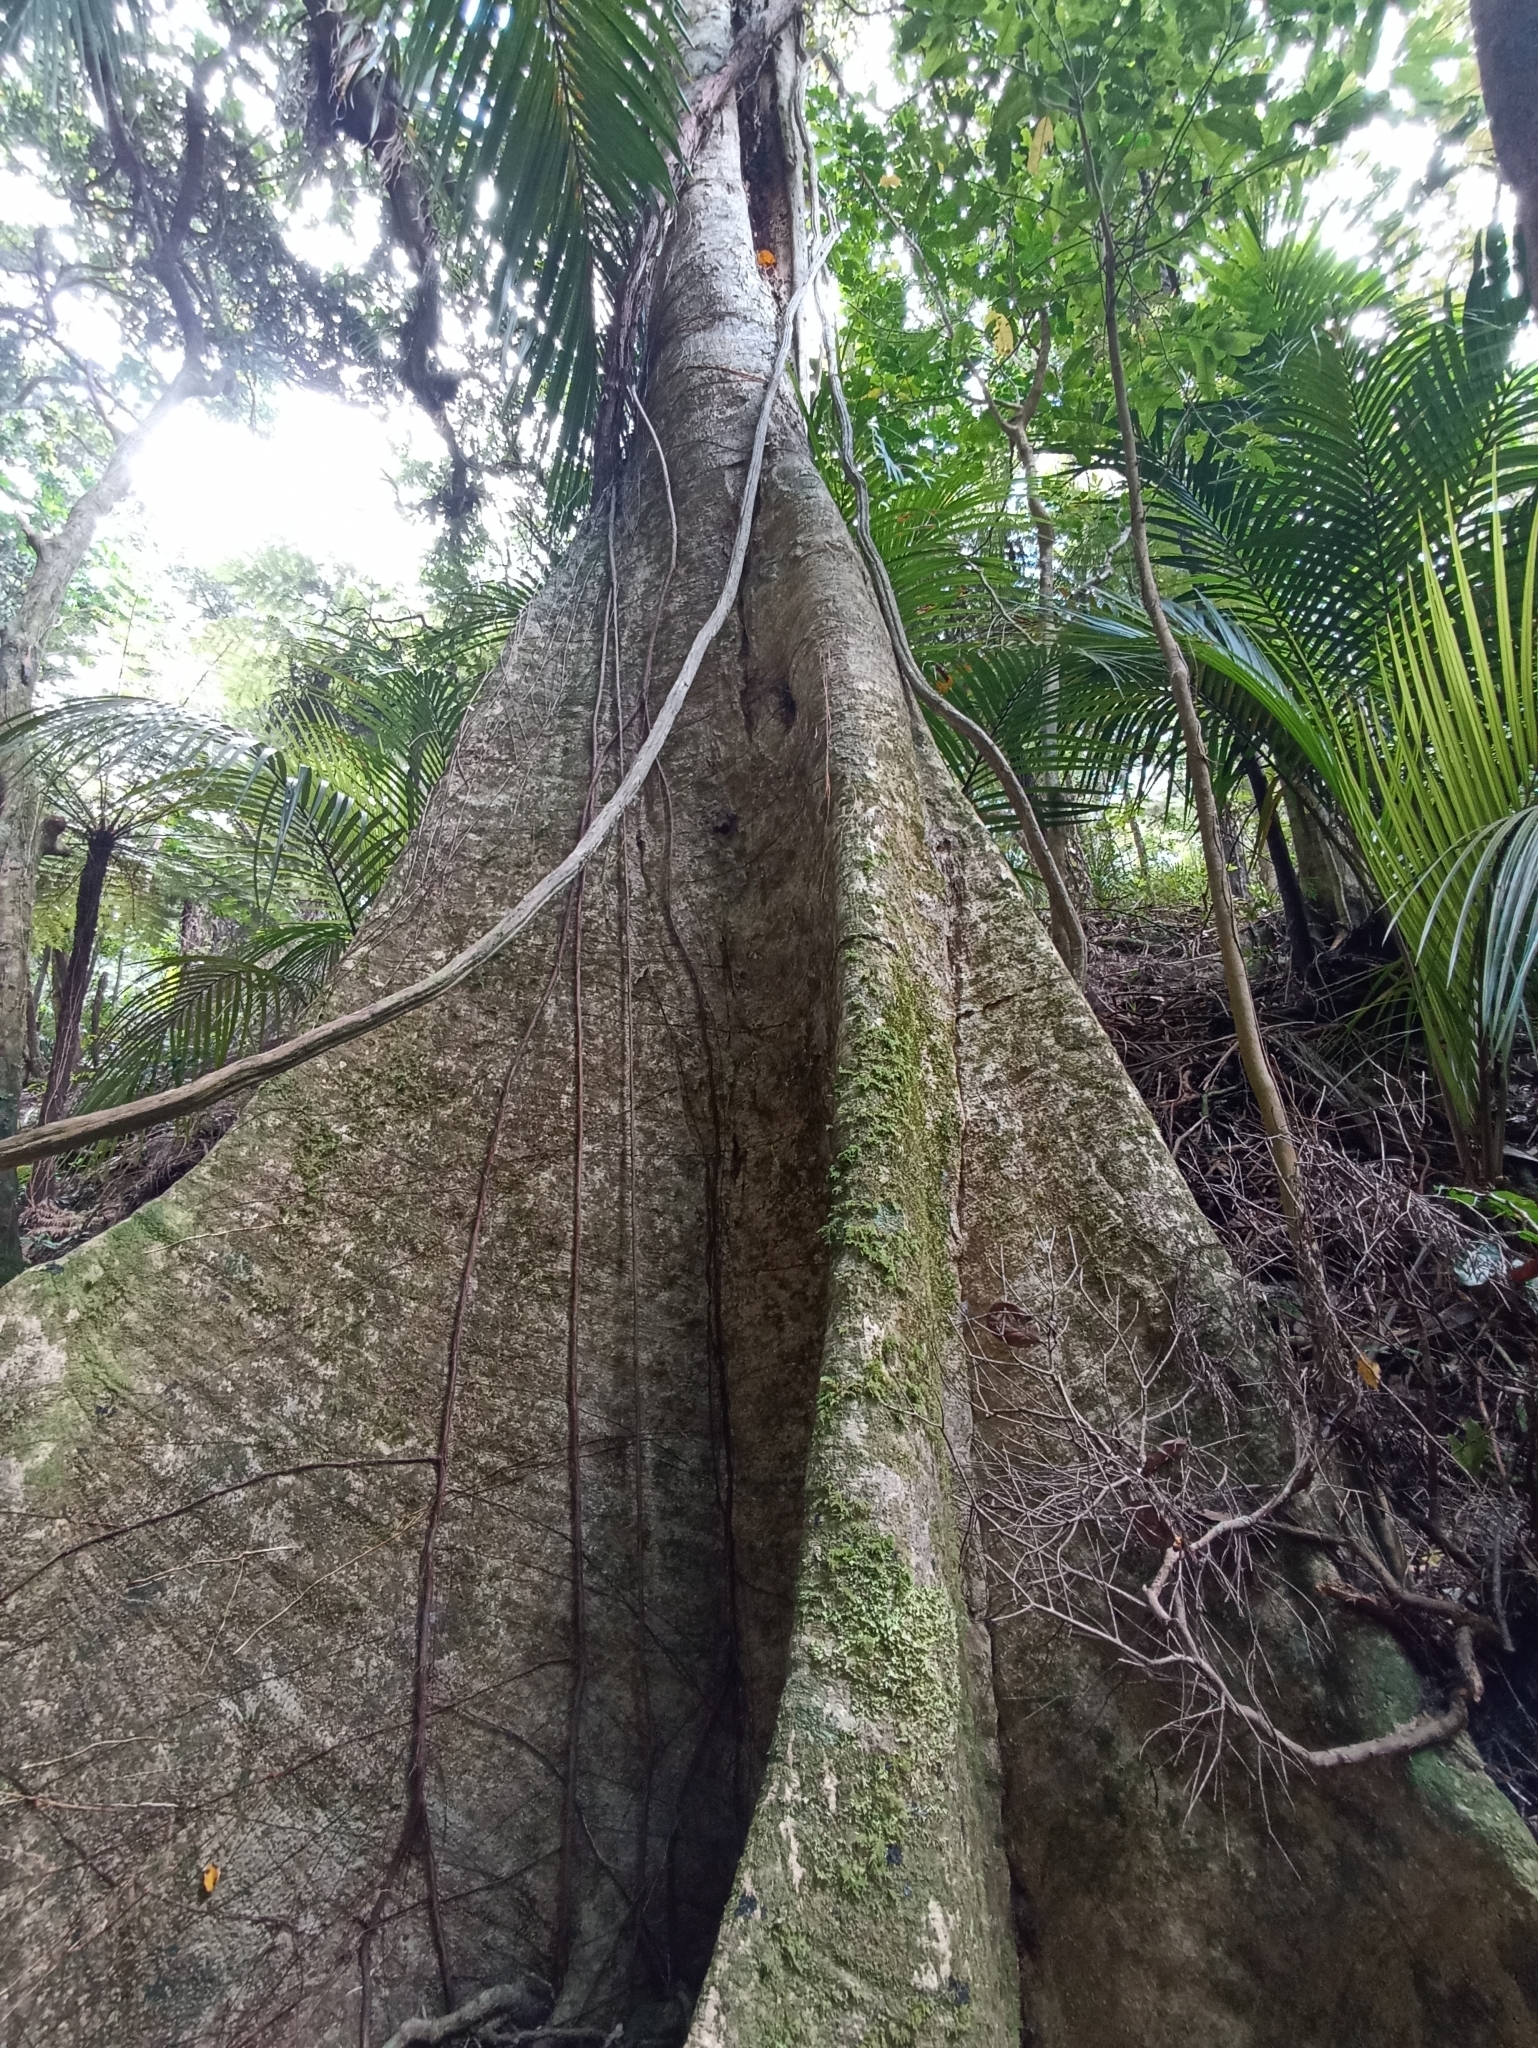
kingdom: Plantae
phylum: Tracheophyta
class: Magnoliopsida
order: Laurales
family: Atherospermataceae
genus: Laurelia
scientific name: Laurelia novae-zelandiae
